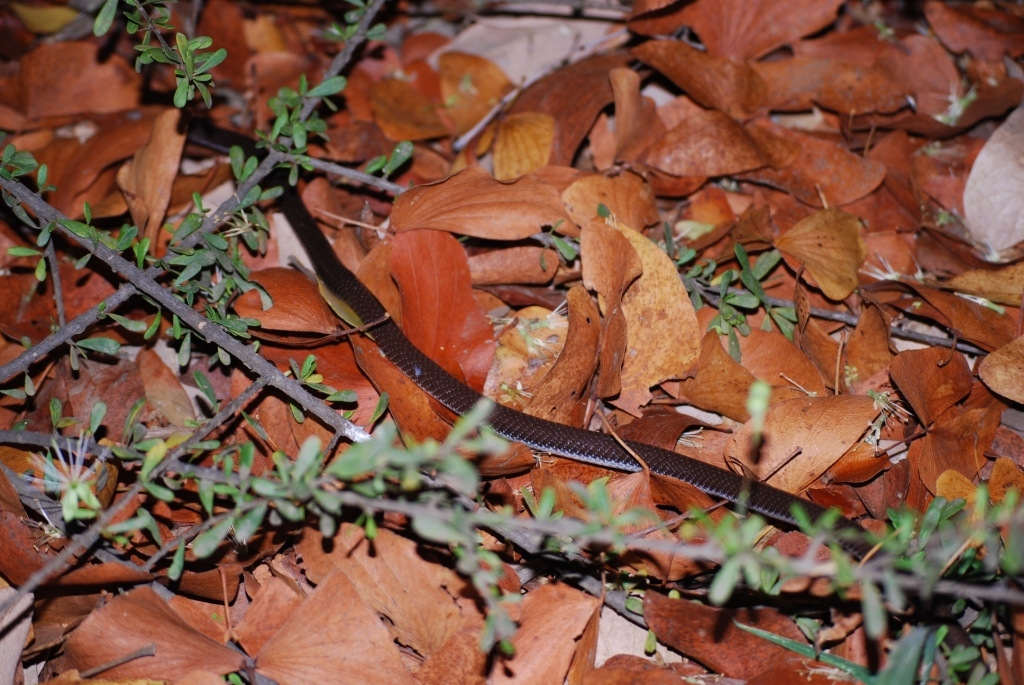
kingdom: Animalia
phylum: Chordata
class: Squamata
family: Lamprophiidae
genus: Lycophidion
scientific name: Lycophidion capense
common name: Cape wolf snake
